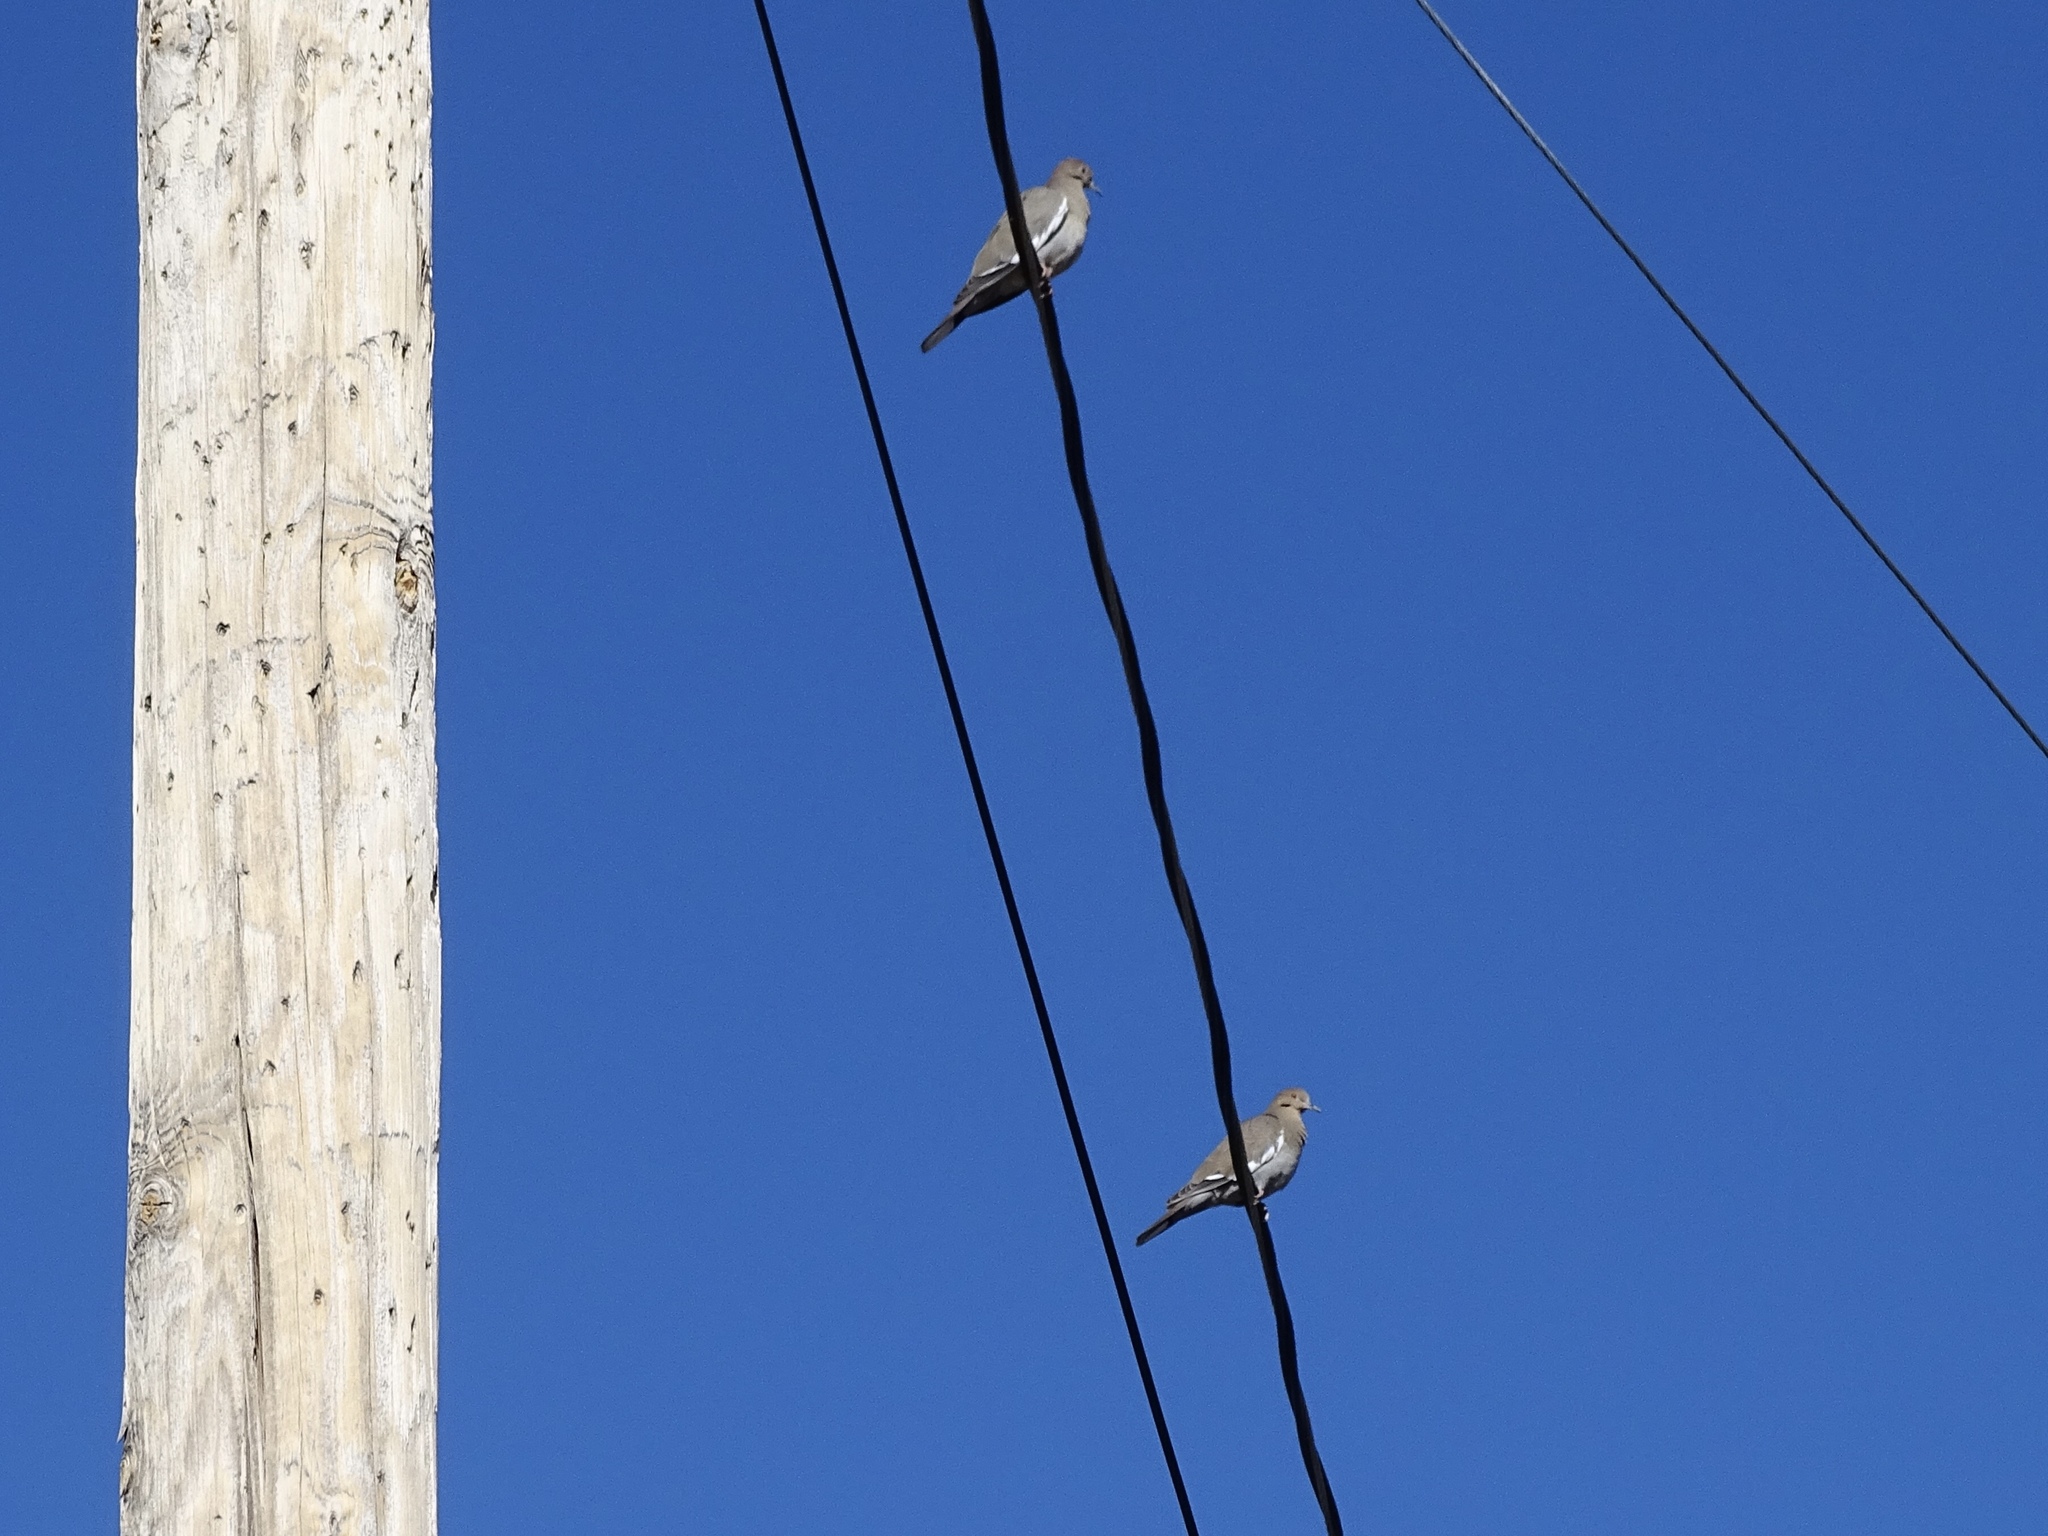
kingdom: Animalia
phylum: Chordata
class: Aves
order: Columbiformes
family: Columbidae
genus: Zenaida
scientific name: Zenaida asiatica
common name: White-winged dove
